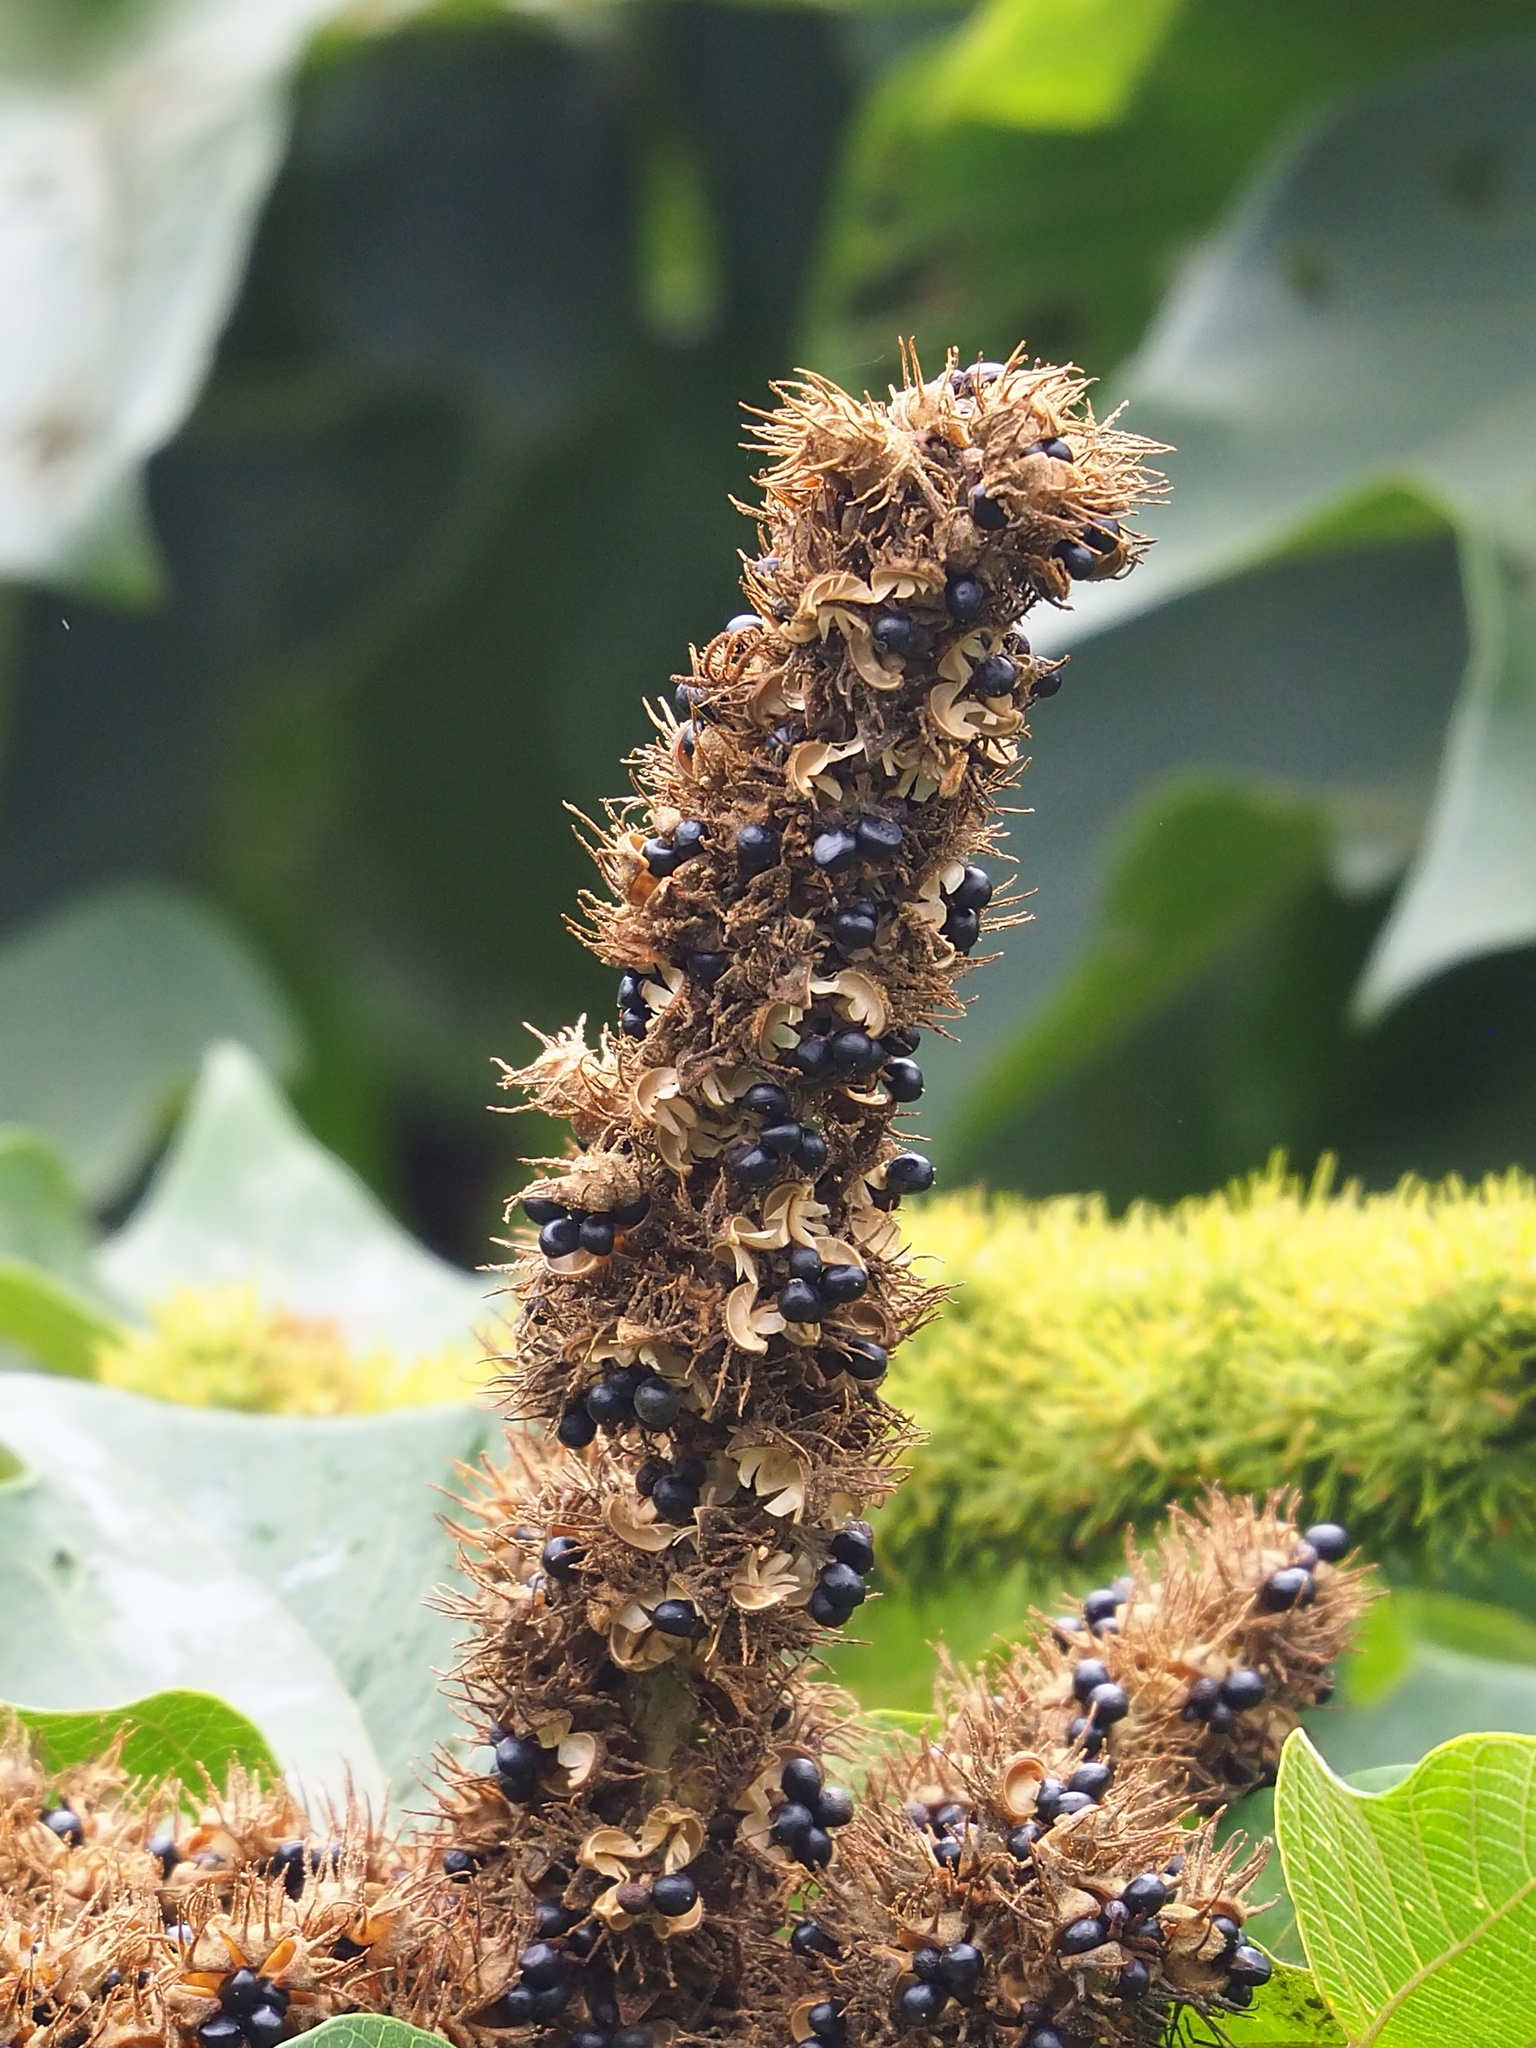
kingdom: Plantae
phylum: Tracheophyta
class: Magnoliopsida
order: Malpighiales
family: Euphorbiaceae
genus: Mallotus
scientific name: Mallotus japonicus
